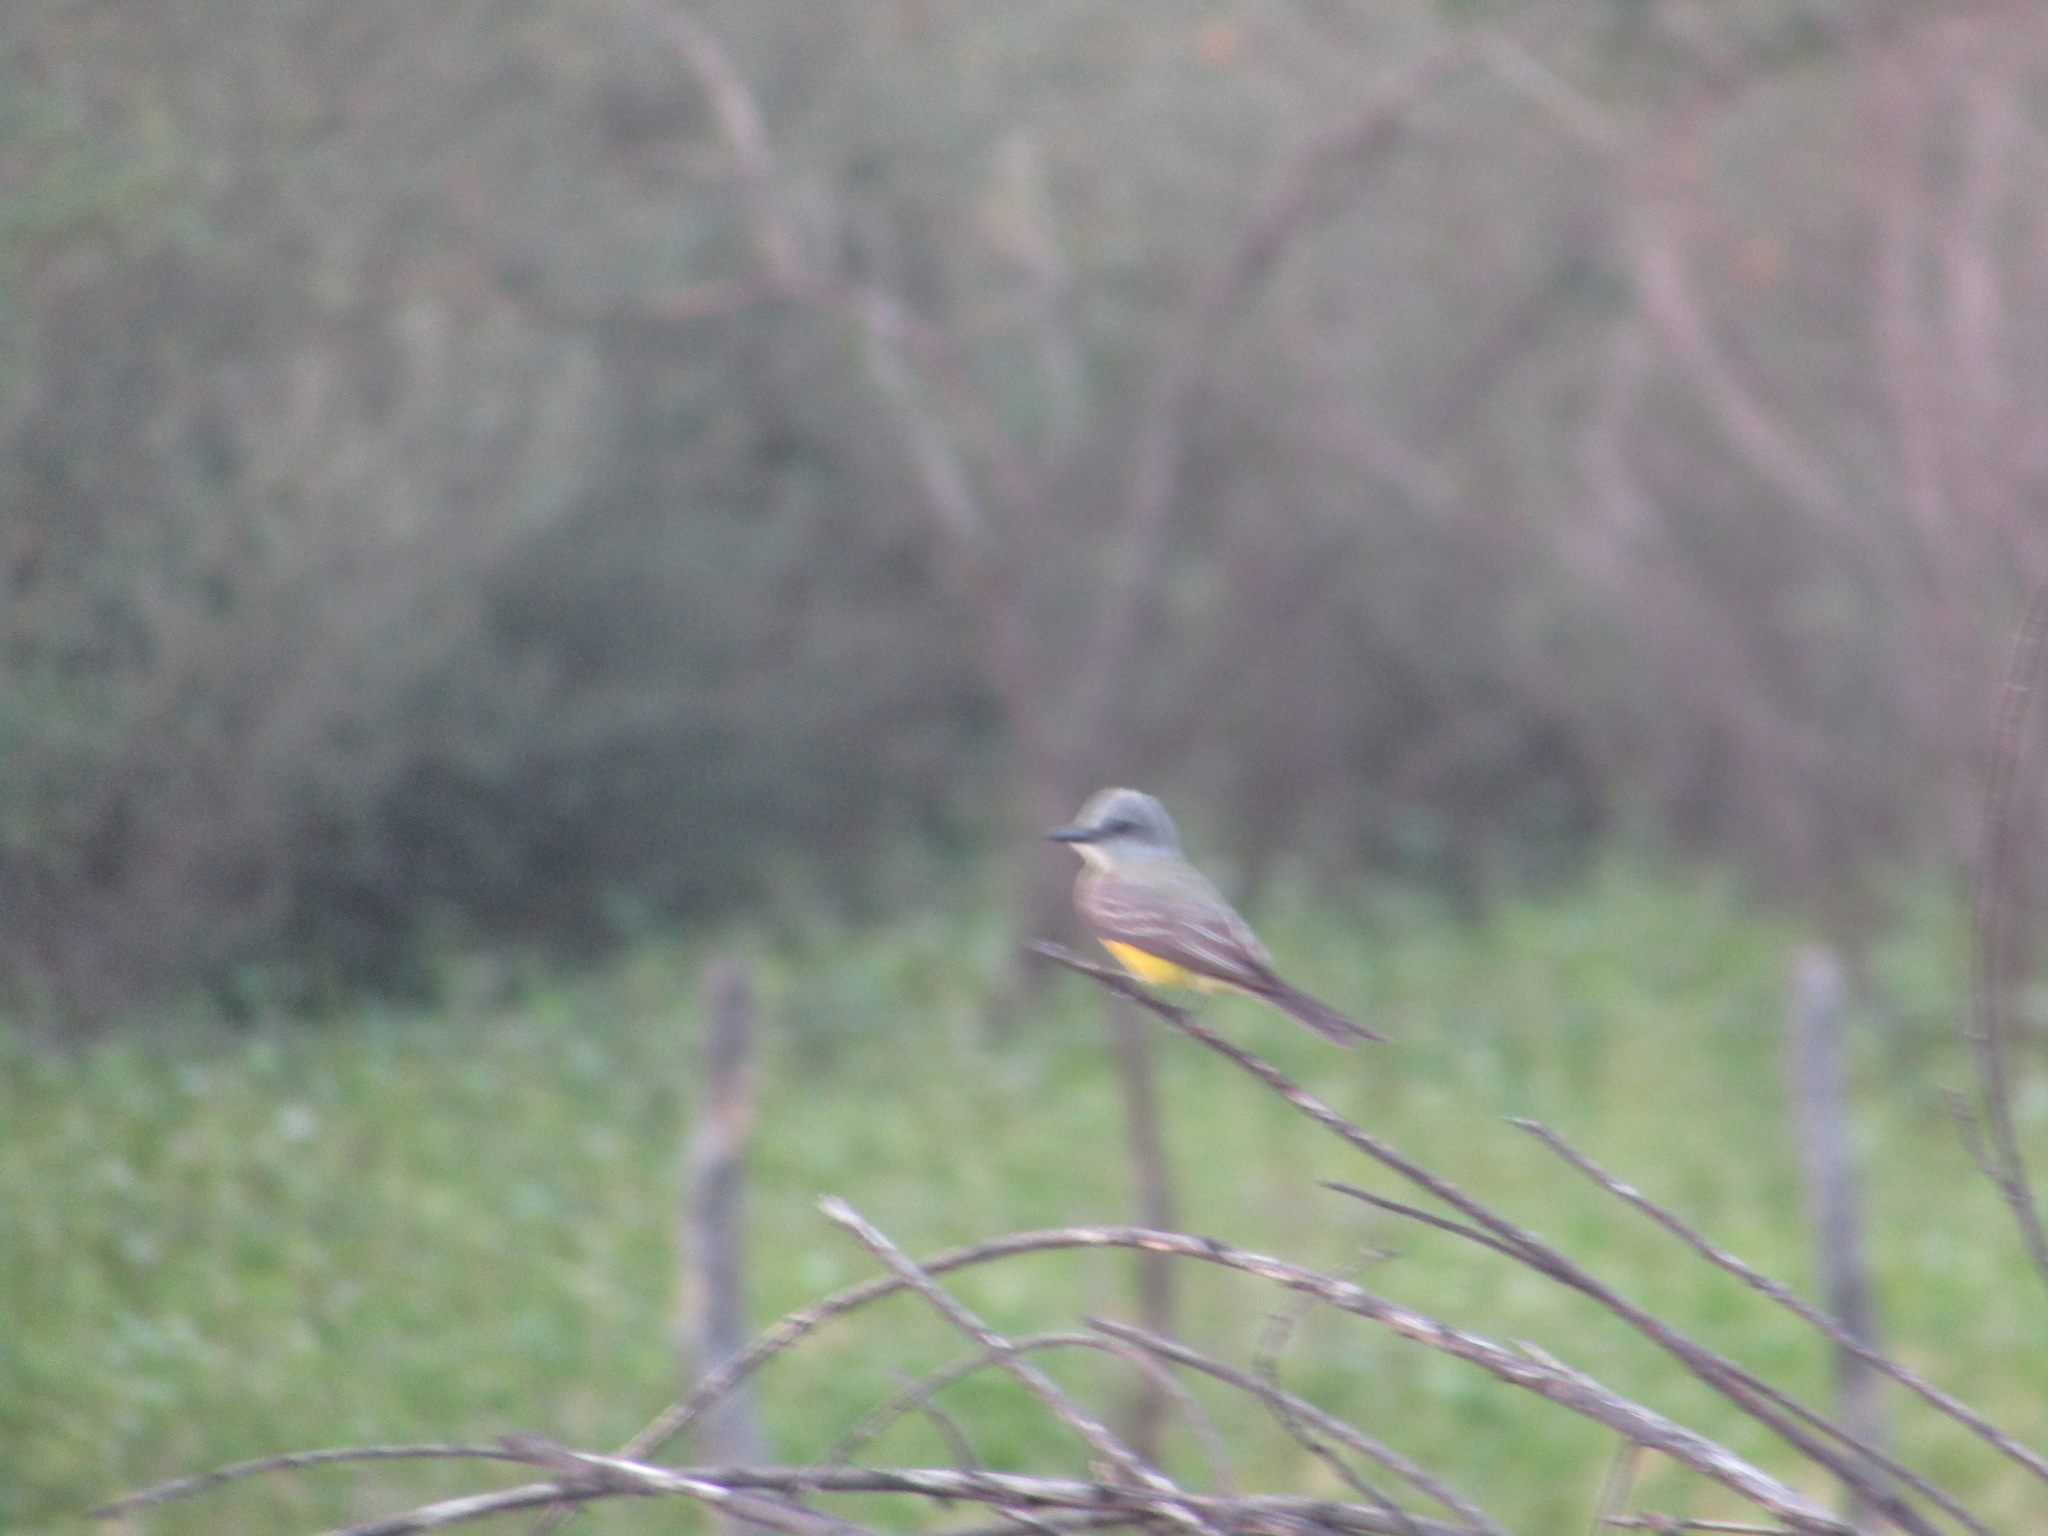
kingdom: Animalia
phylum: Chordata
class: Aves
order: Passeriformes
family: Tyrannidae
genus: Tyrannus
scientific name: Tyrannus melancholicus
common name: Tropical kingbird
